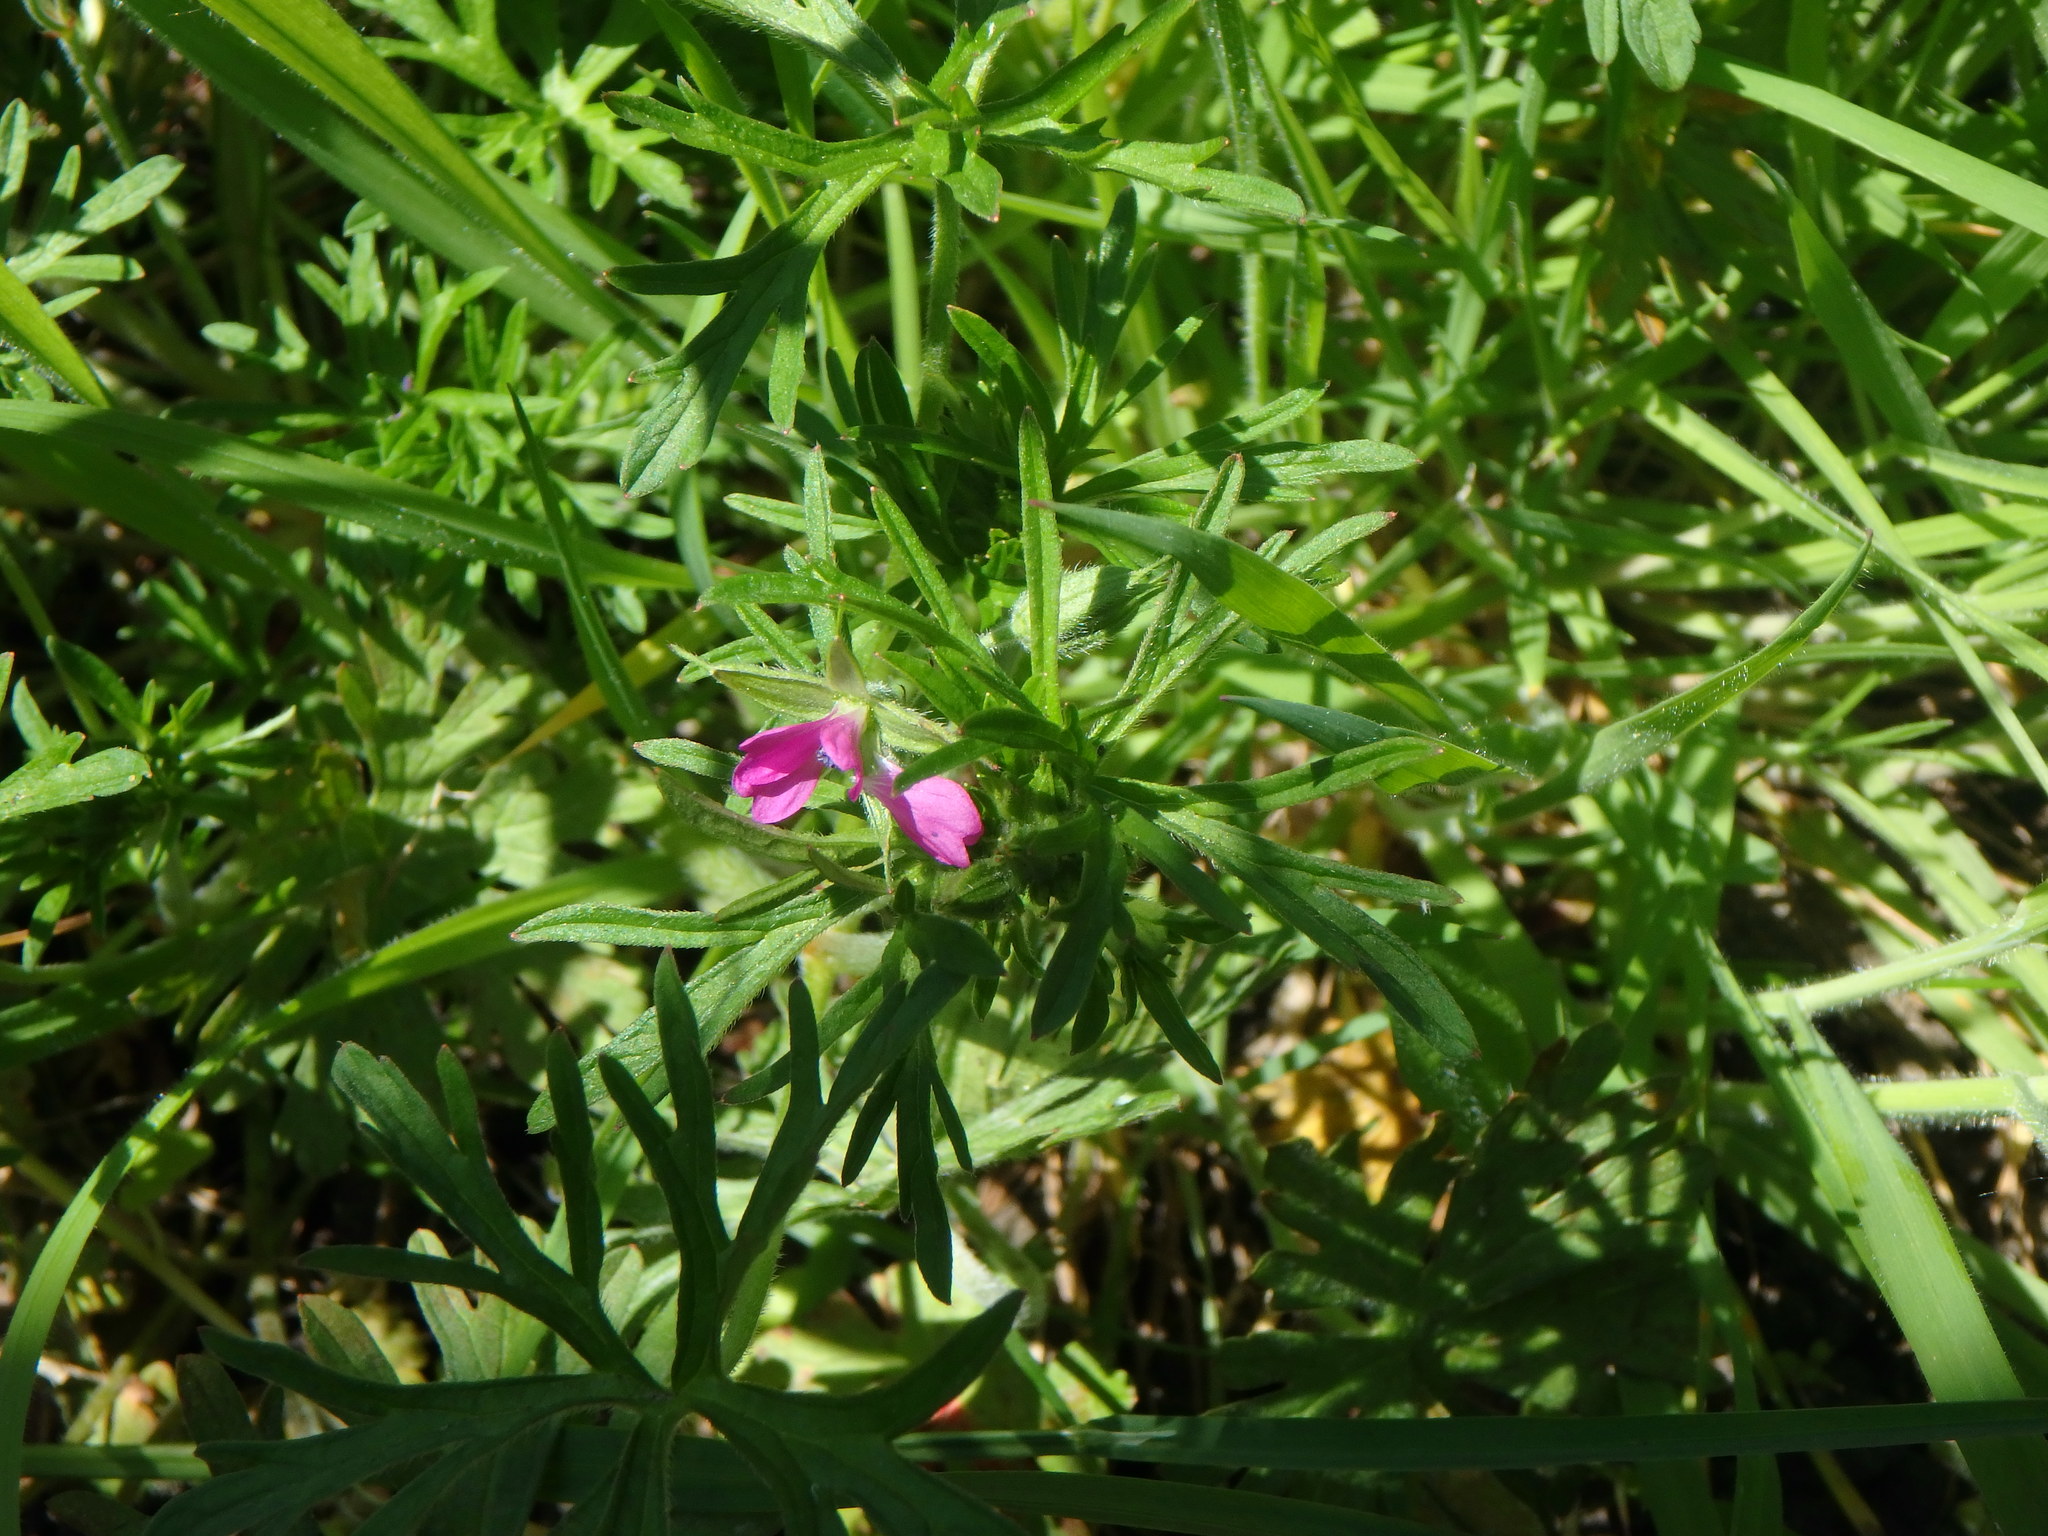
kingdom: Plantae
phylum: Tracheophyta
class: Magnoliopsida
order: Geraniales
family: Geraniaceae
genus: Geranium
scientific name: Geranium dissectum
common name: Cut-leaved crane's-bill
